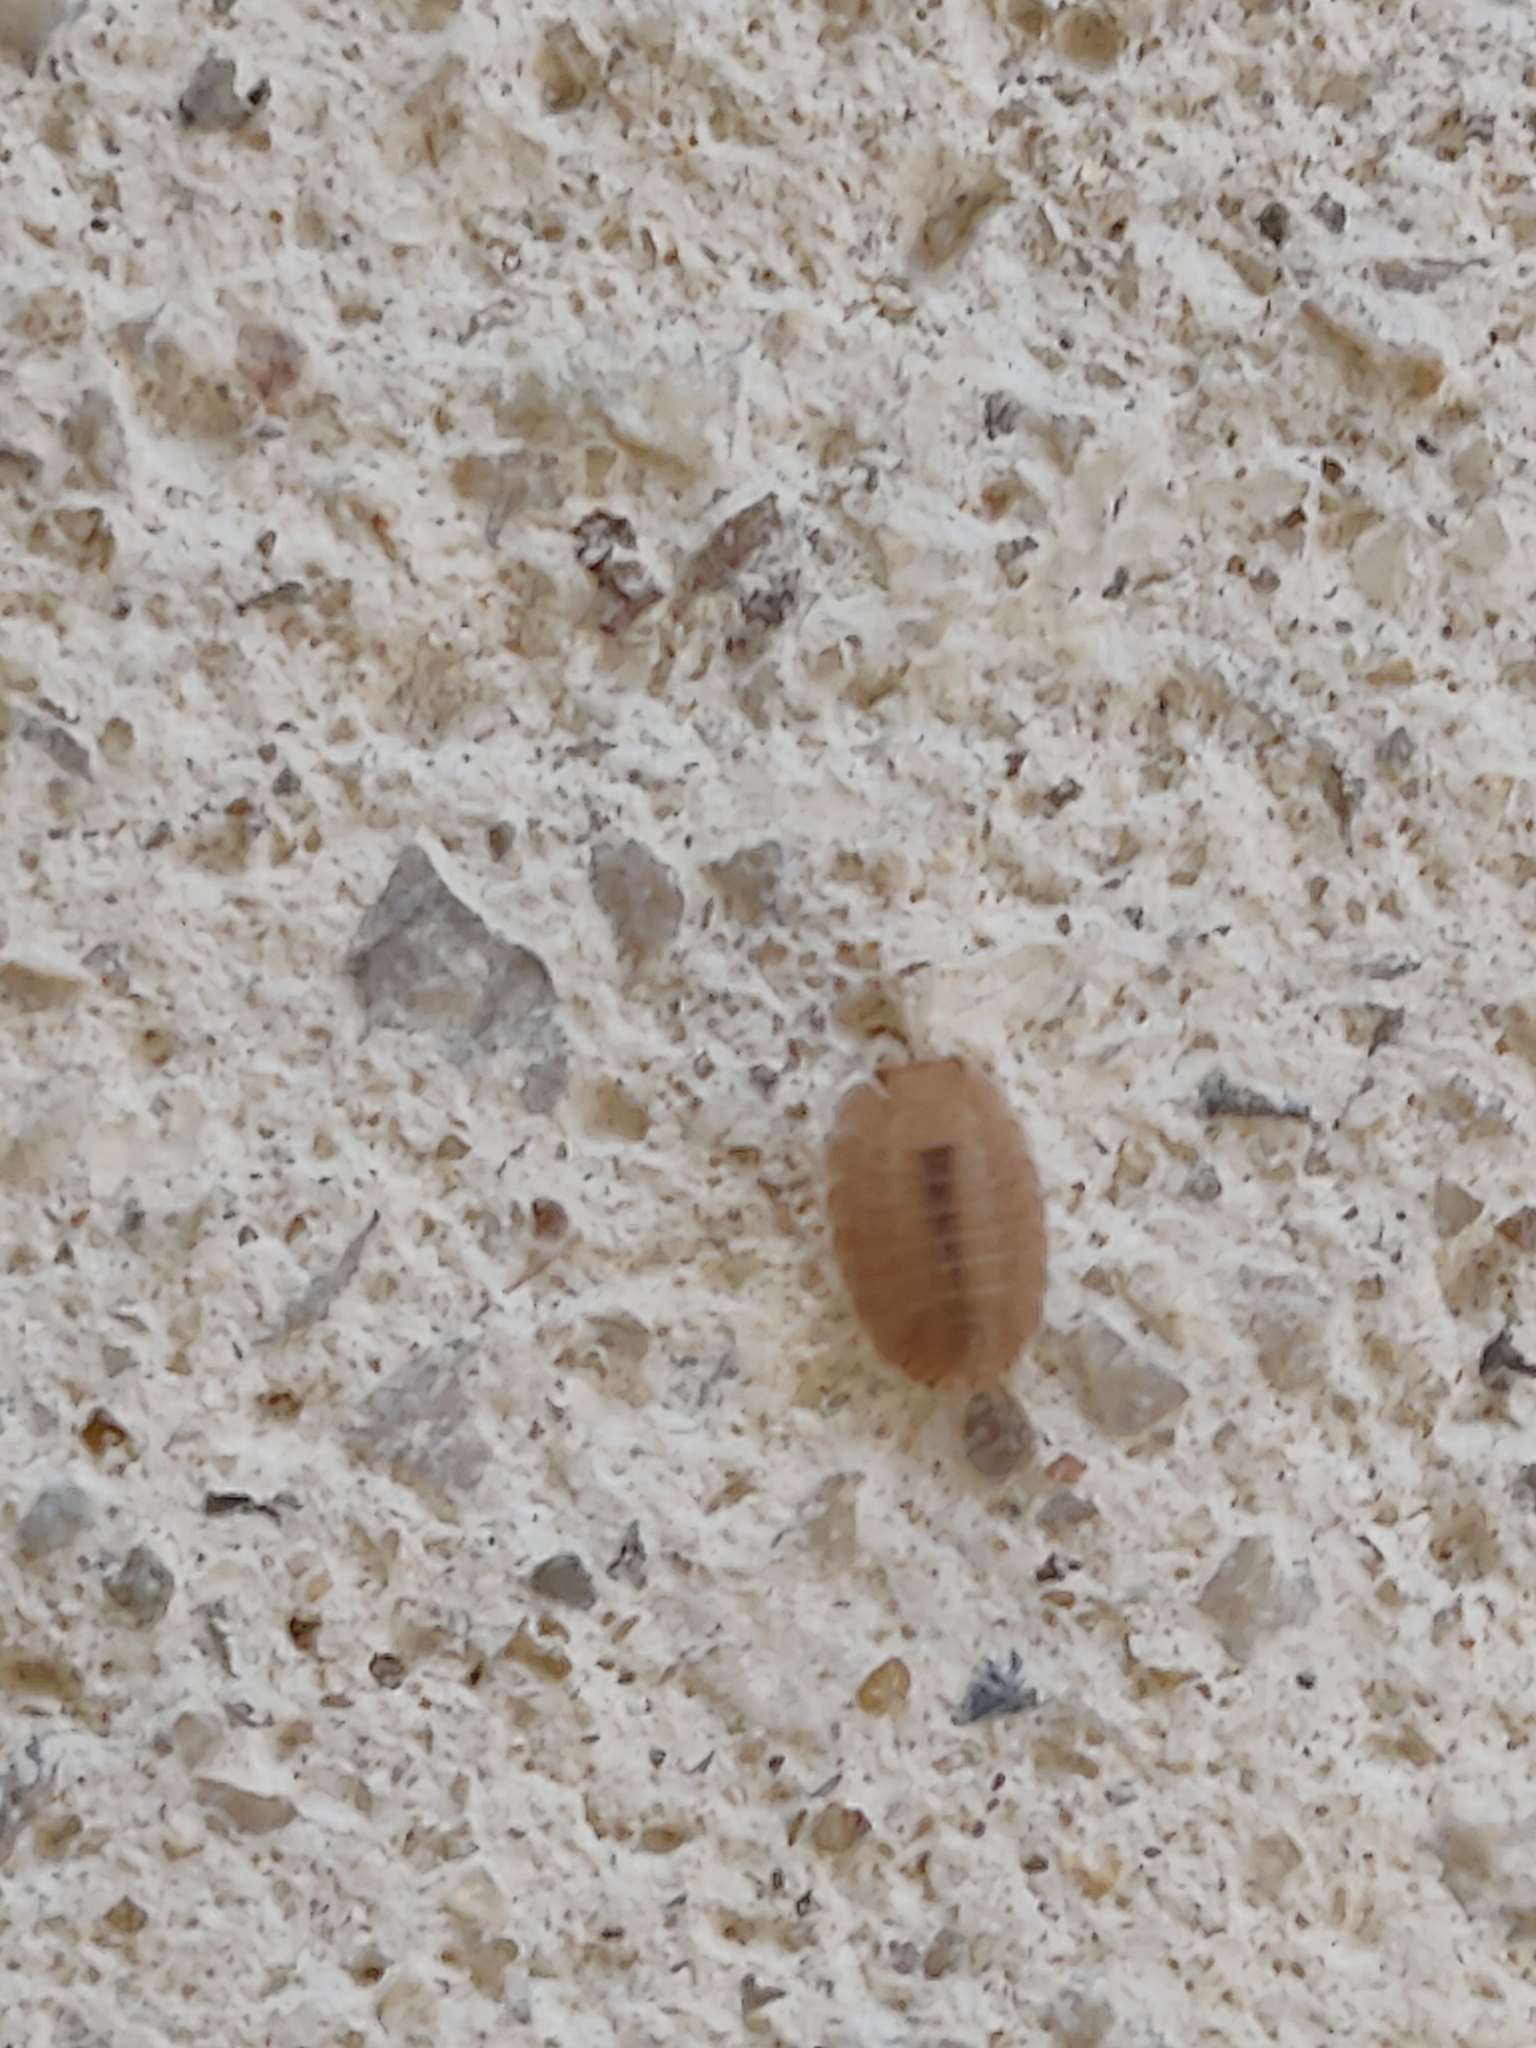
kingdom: Animalia
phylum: Arthropoda
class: Malacostraca
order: Isopoda
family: Porcellionidae
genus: Lucasius
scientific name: Lucasius andalusicus
